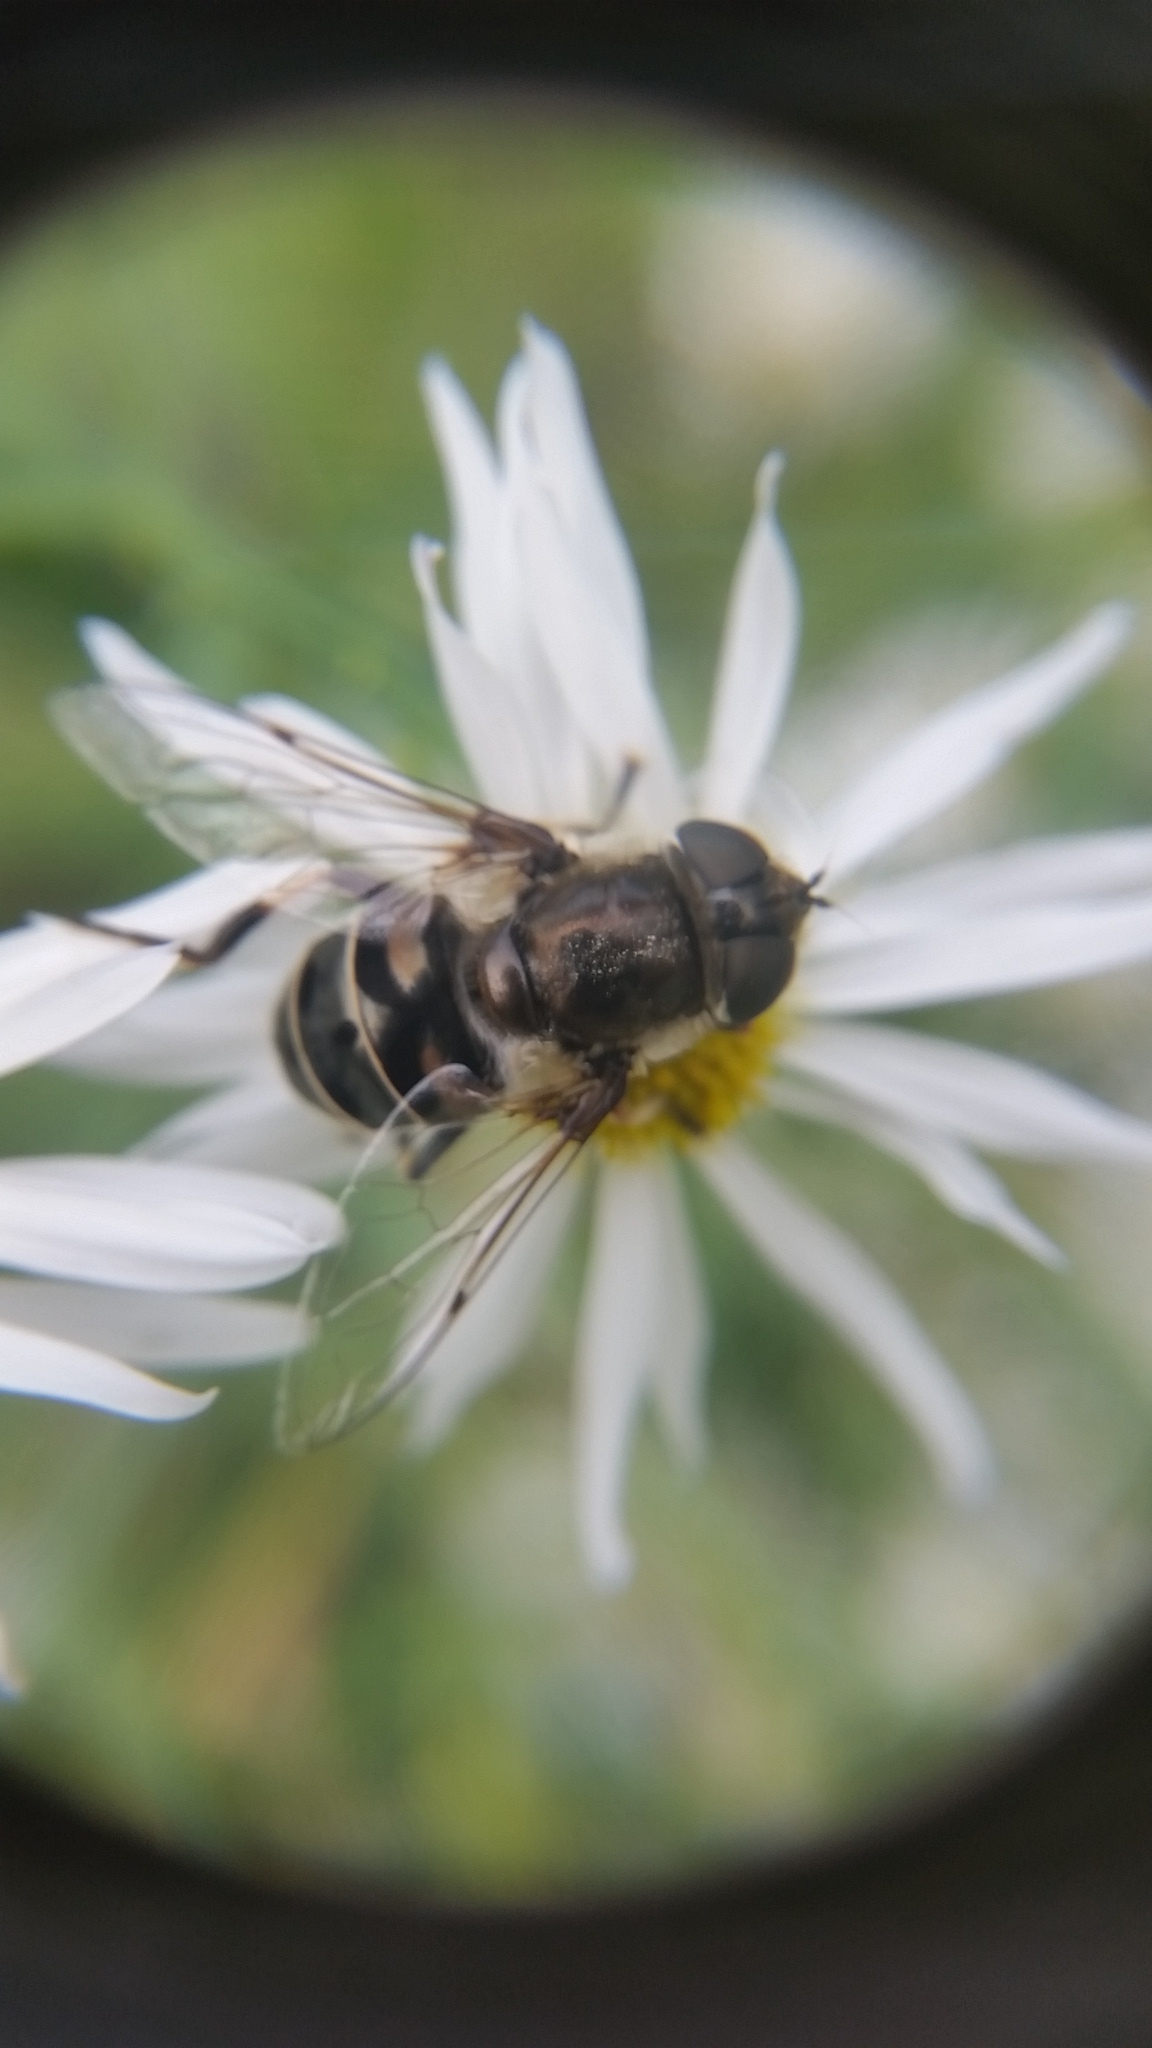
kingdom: Animalia
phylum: Arthropoda
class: Insecta
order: Diptera
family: Syrphidae
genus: Eristalis
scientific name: Eristalis dimidiata
